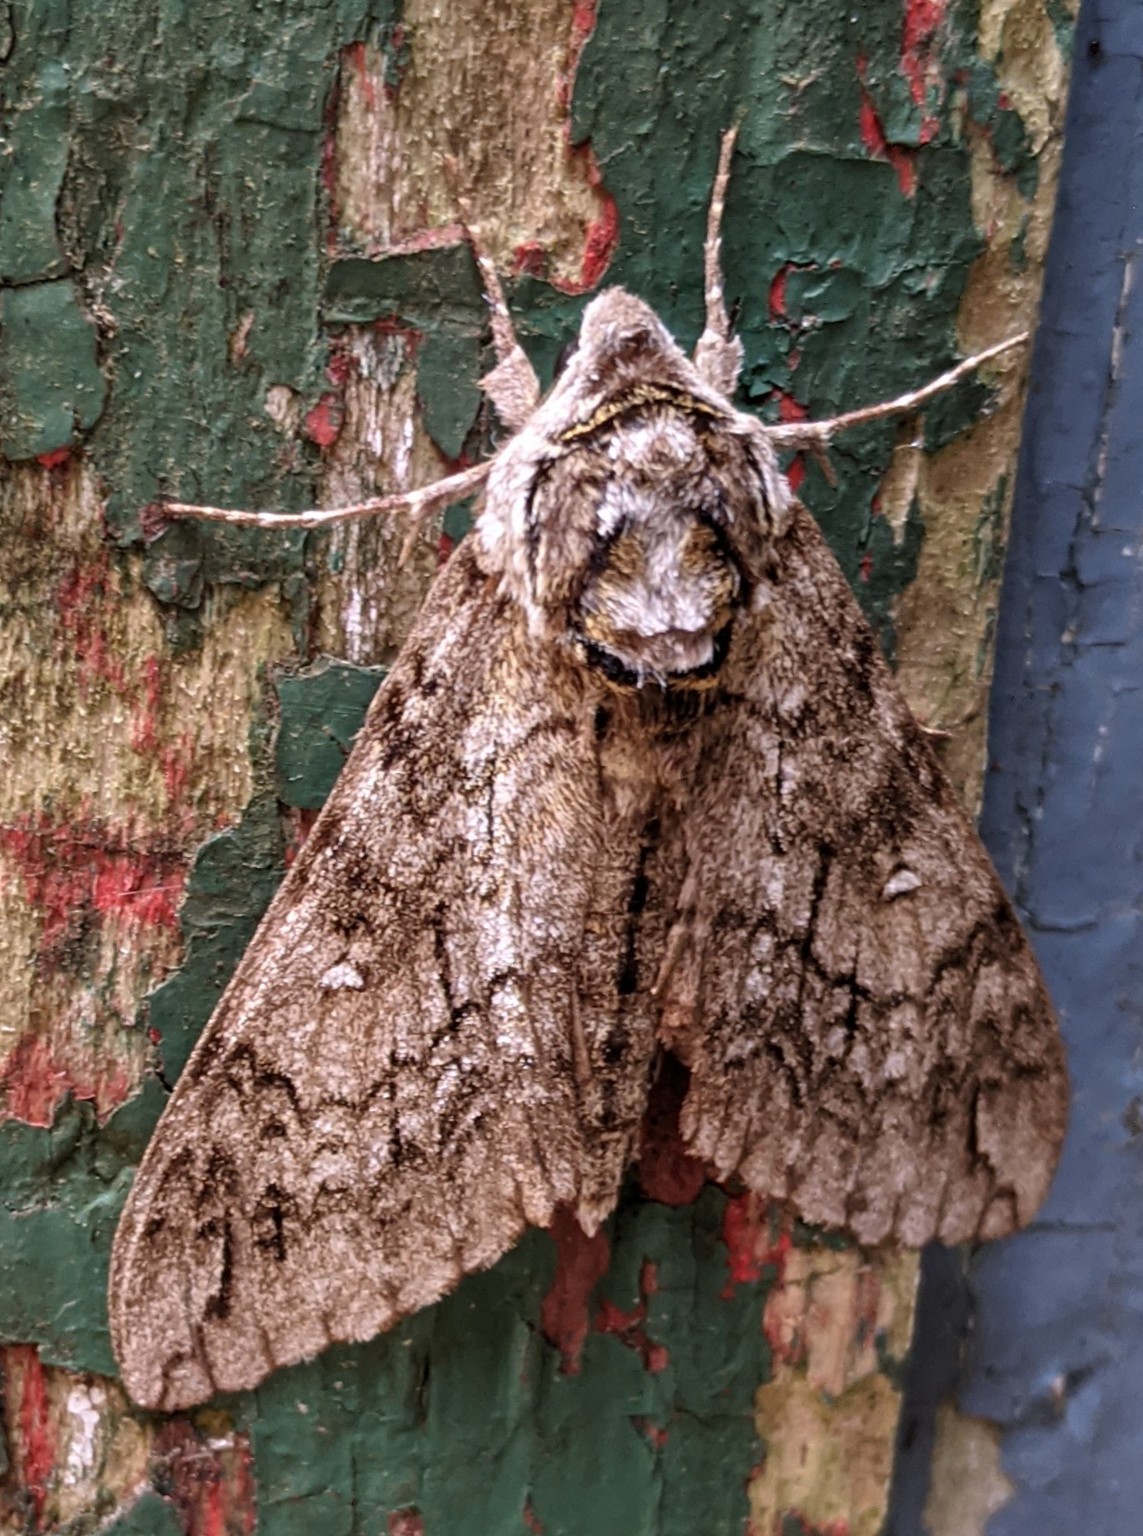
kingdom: Animalia
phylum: Arthropoda
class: Insecta
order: Lepidoptera
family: Sphingidae
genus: Ceratomia
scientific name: Ceratomia undulosa
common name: Waved sphinx
